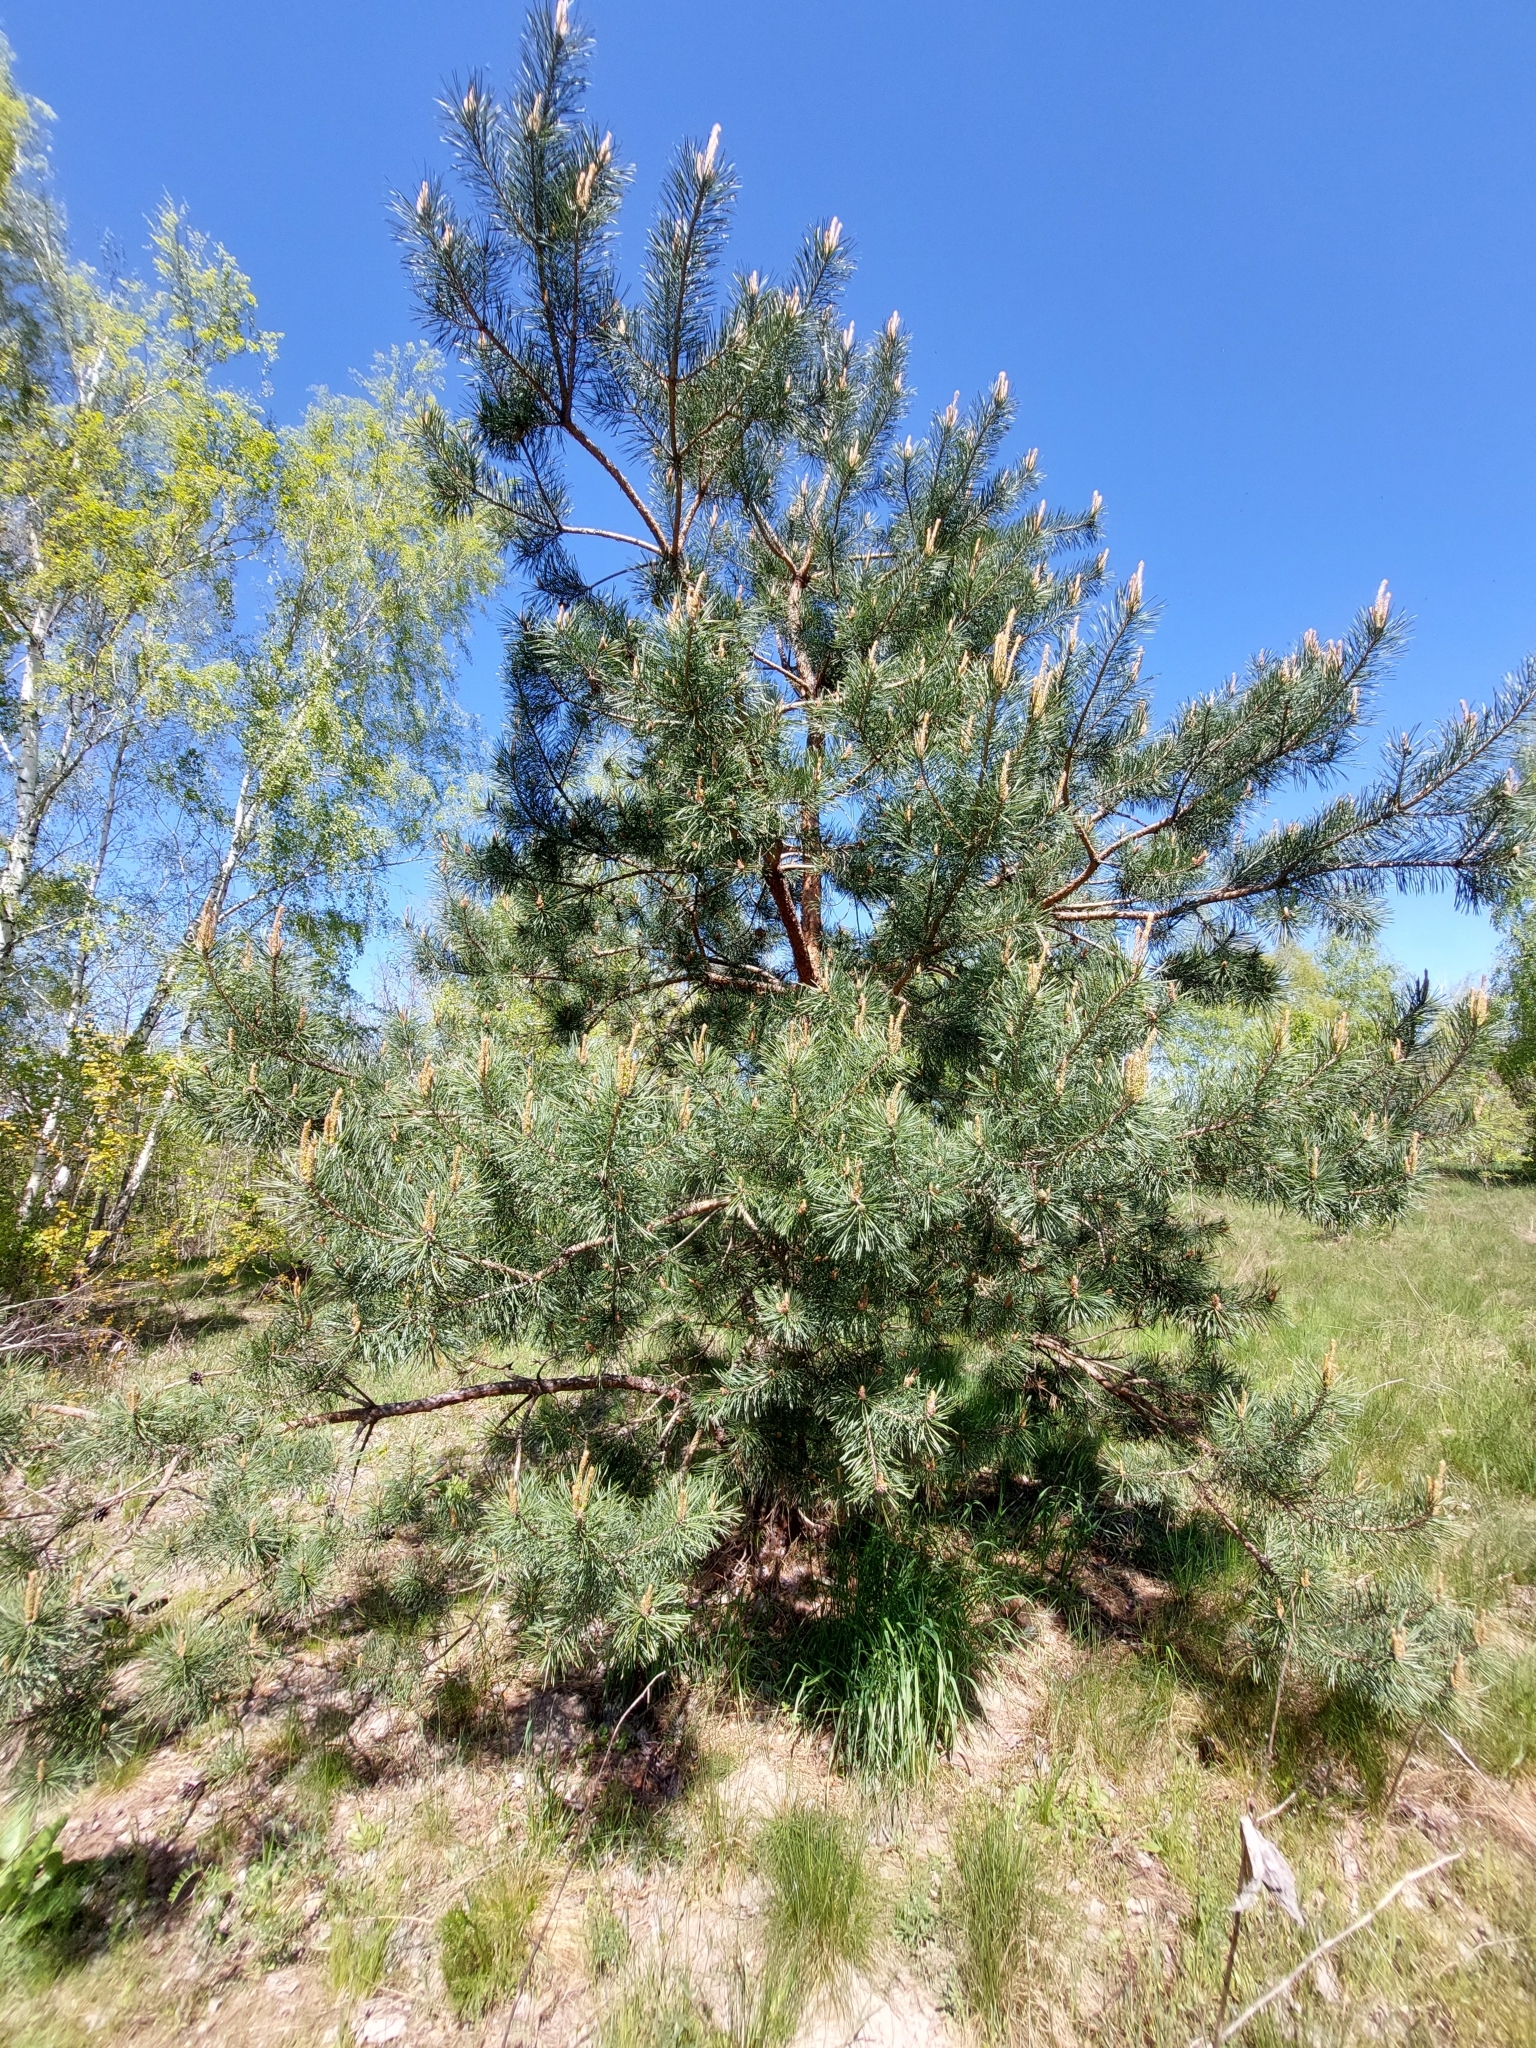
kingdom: Plantae
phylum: Tracheophyta
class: Pinopsida
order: Pinales
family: Pinaceae
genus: Pinus
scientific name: Pinus sylvestris
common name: Scots pine
